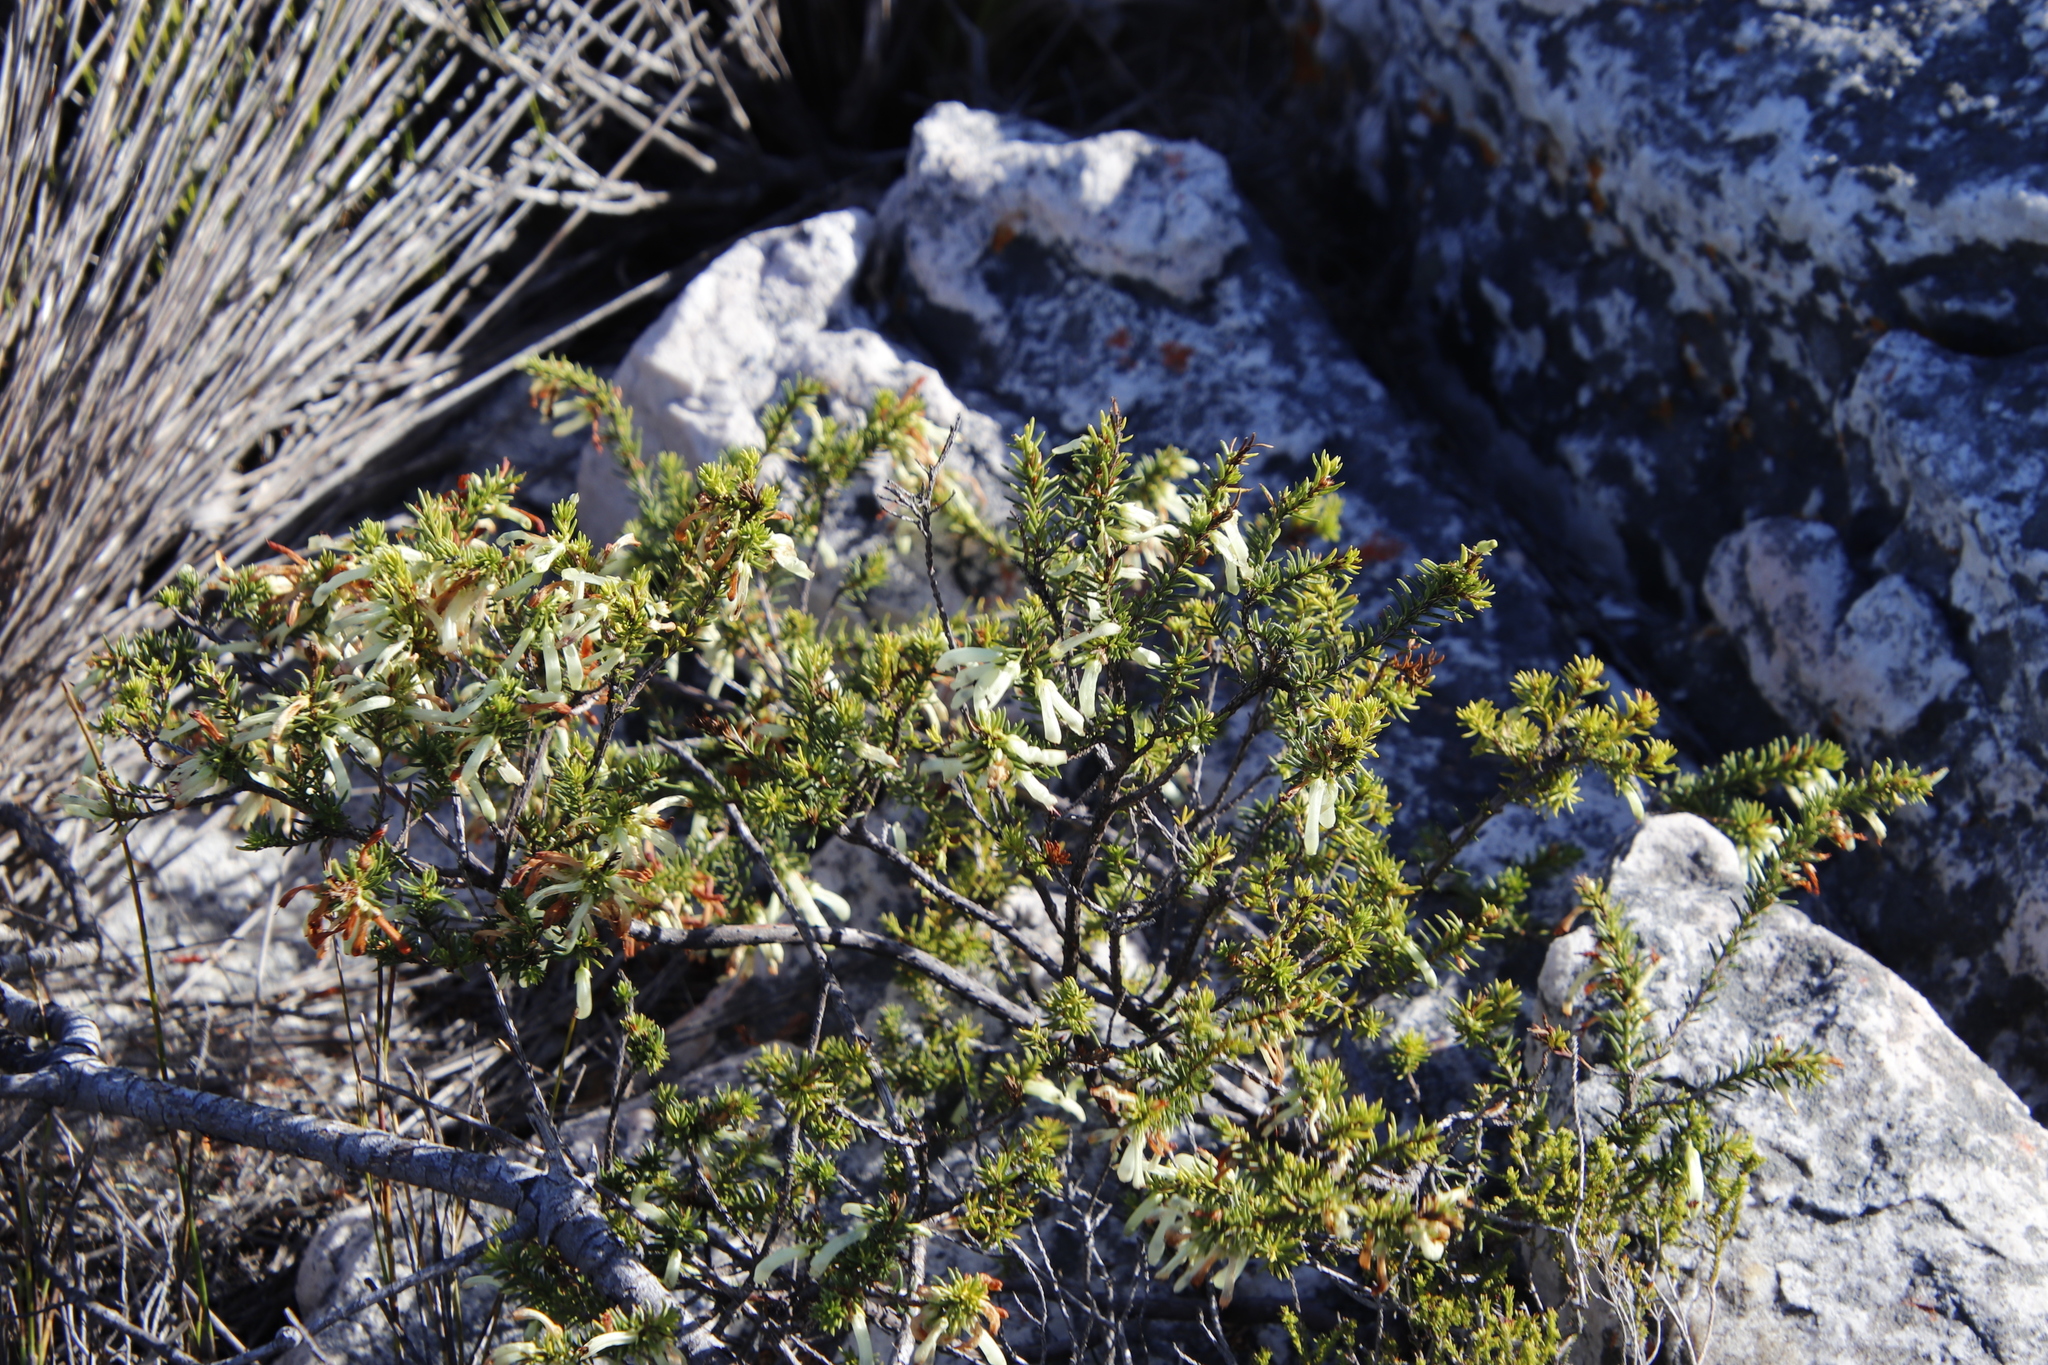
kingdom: Plantae
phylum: Tracheophyta
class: Magnoliopsida
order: Ericales
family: Ericaceae
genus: Erica
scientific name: Erica mammosa
